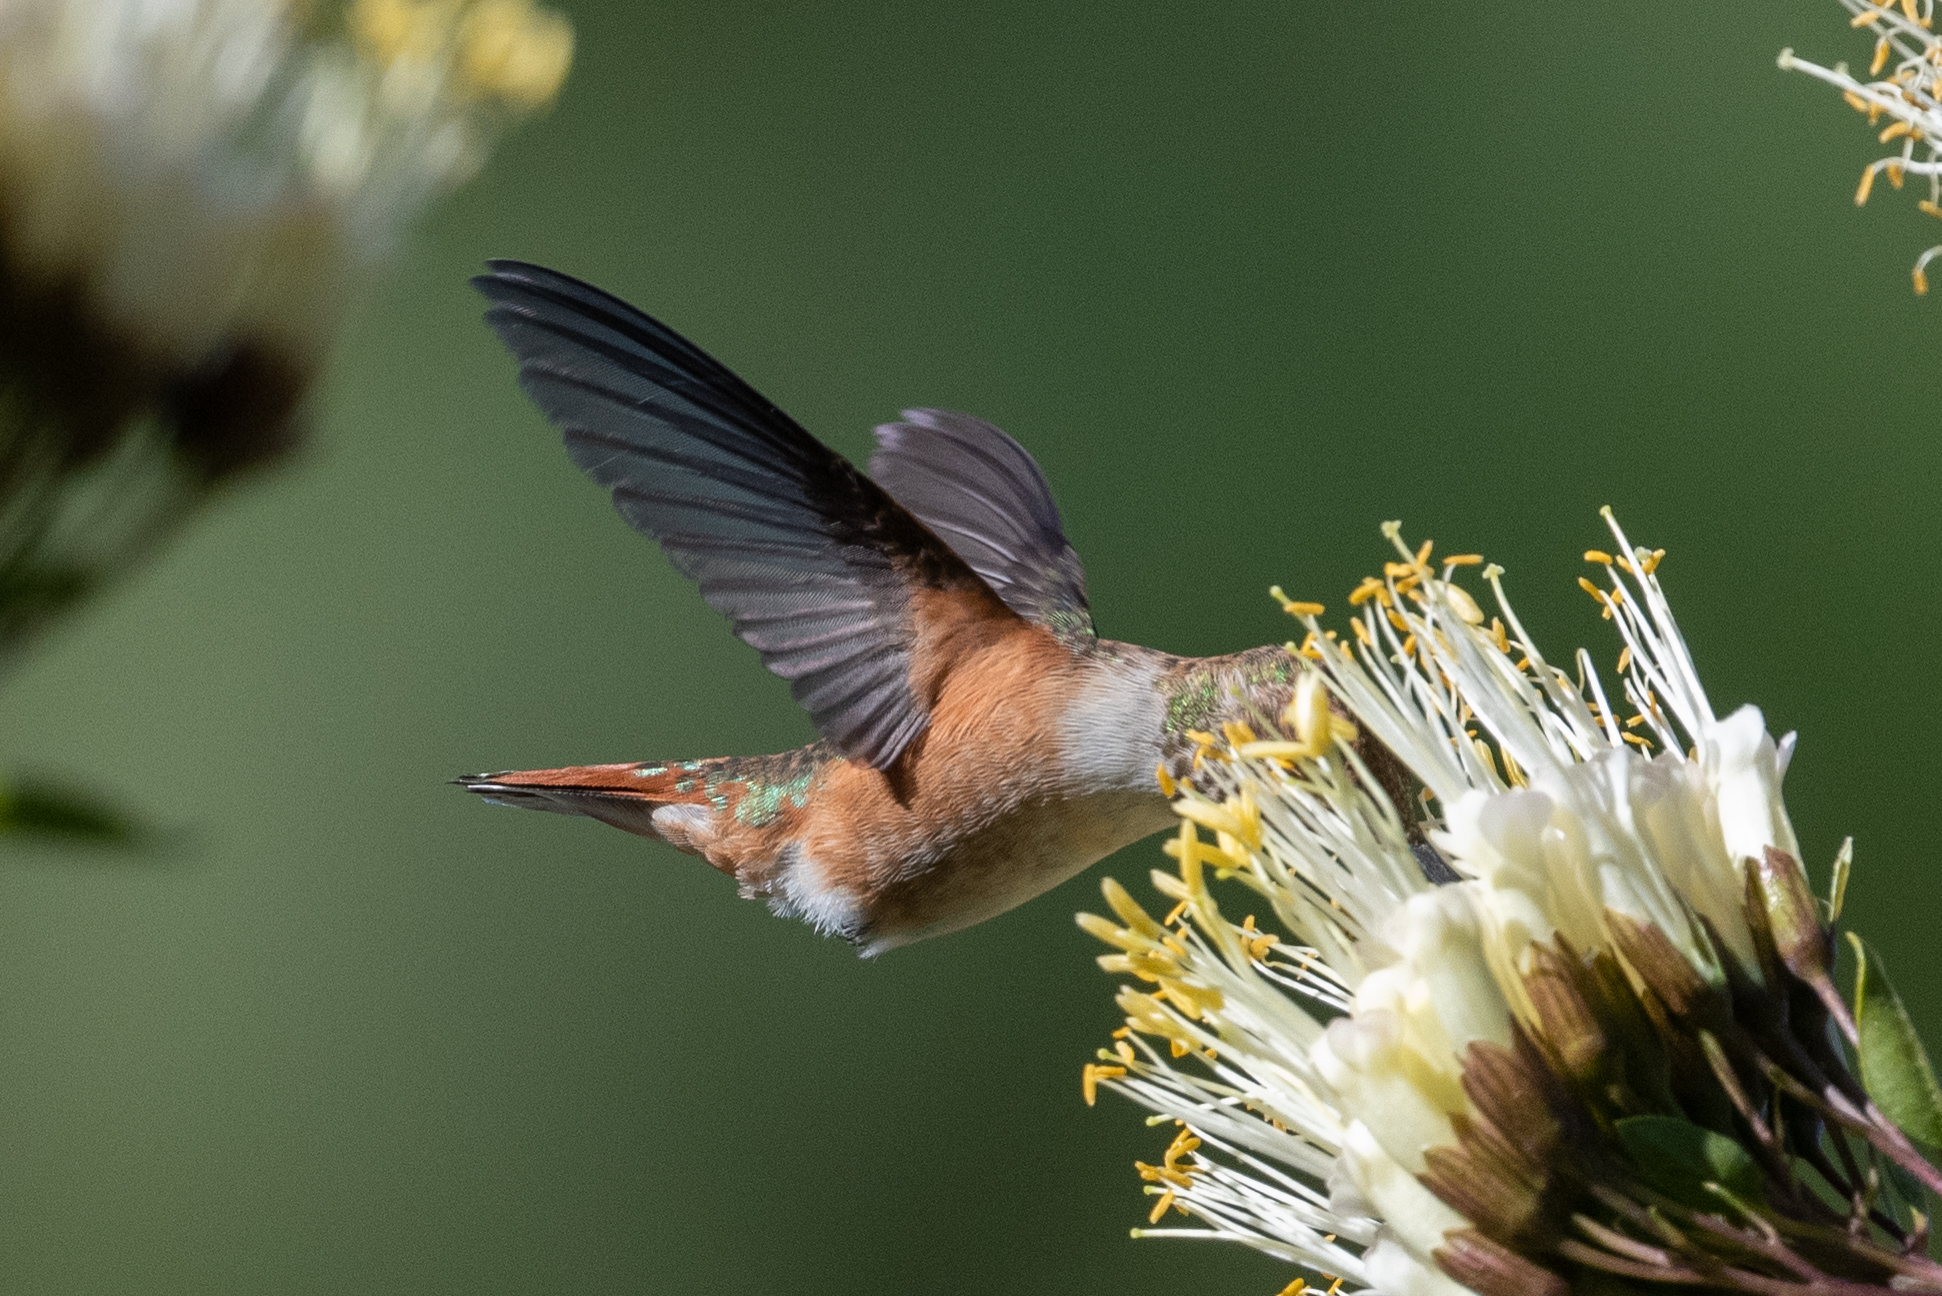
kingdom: Animalia
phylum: Chordata
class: Aves
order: Apodiformes
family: Trochilidae
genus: Selasphorus
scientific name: Selasphorus
